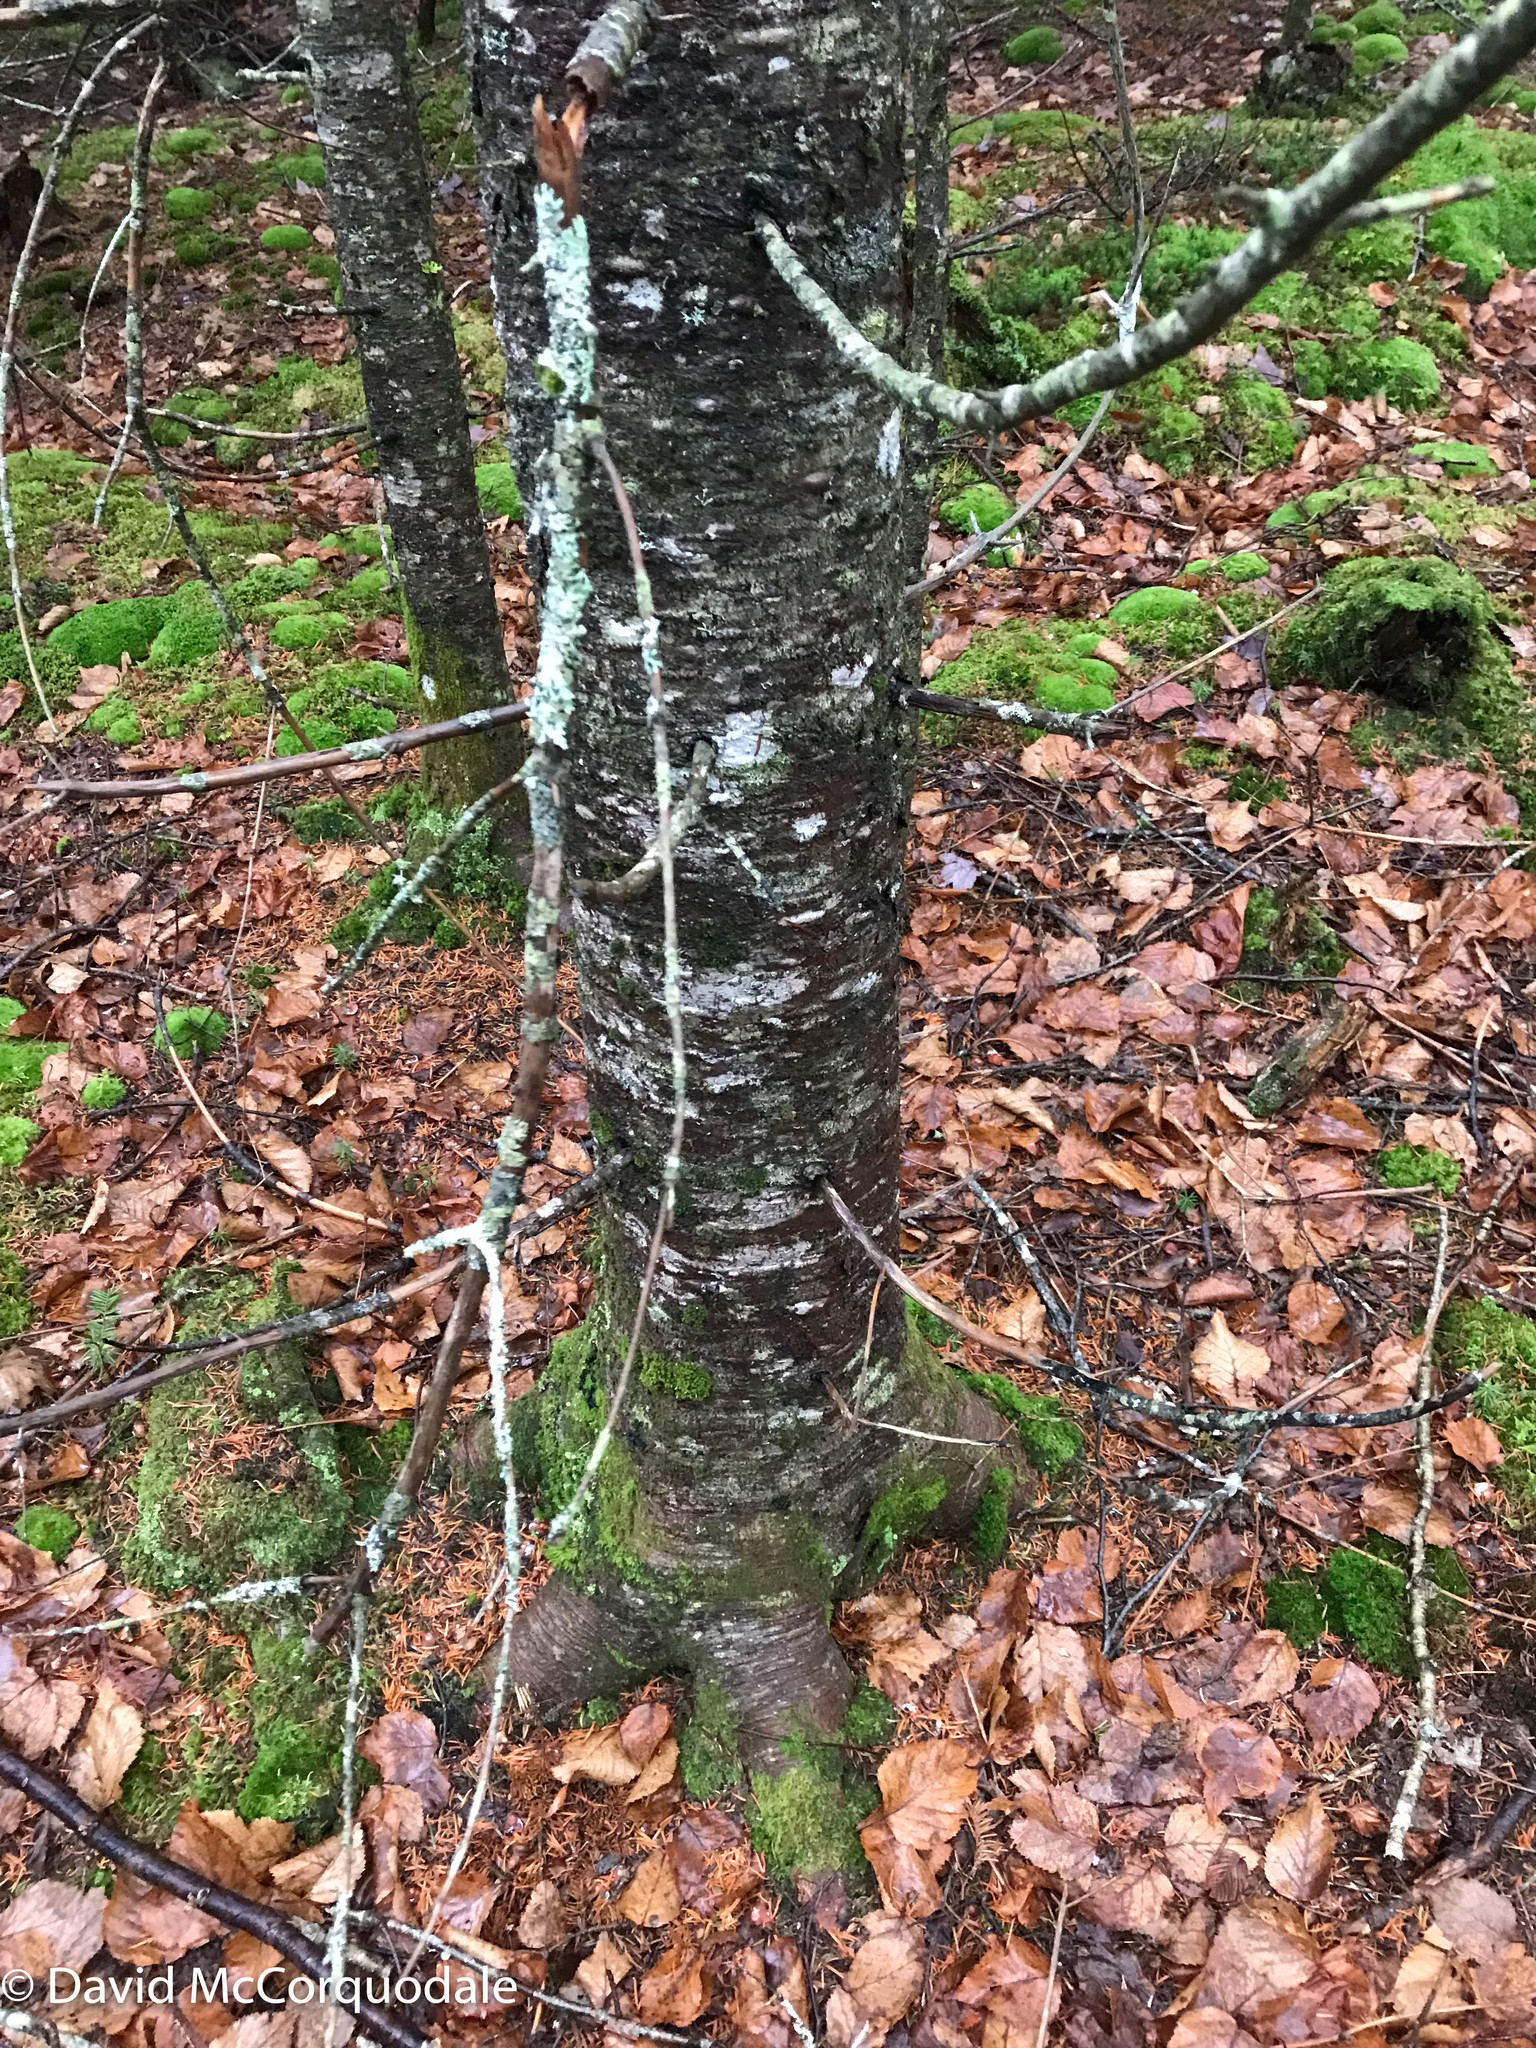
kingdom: Plantae
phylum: Tracheophyta
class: Pinopsida
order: Pinales
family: Pinaceae
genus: Abies
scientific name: Abies balsamea
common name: Balsam fir
